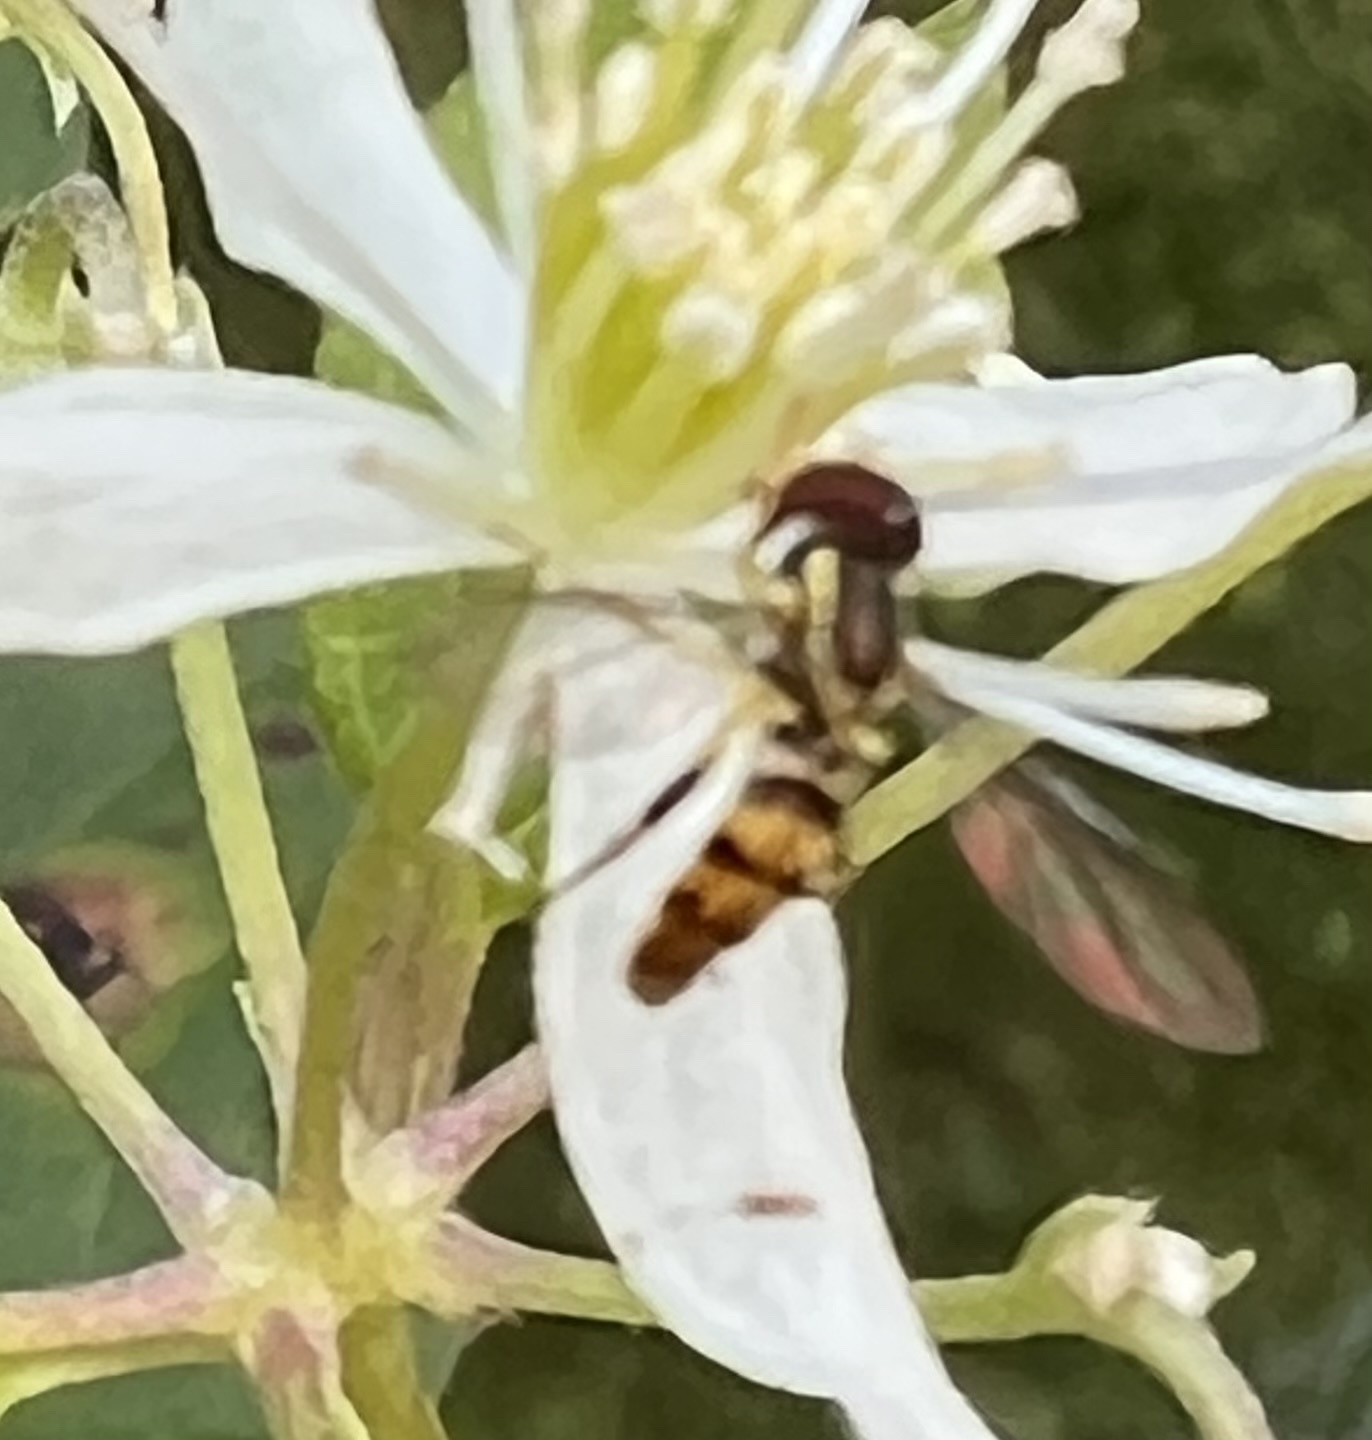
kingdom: Animalia
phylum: Arthropoda
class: Insecta
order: Diptera
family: Syrphidae
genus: Toxomerus
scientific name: Toxomerus geminatus
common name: Eastern calligrapher
